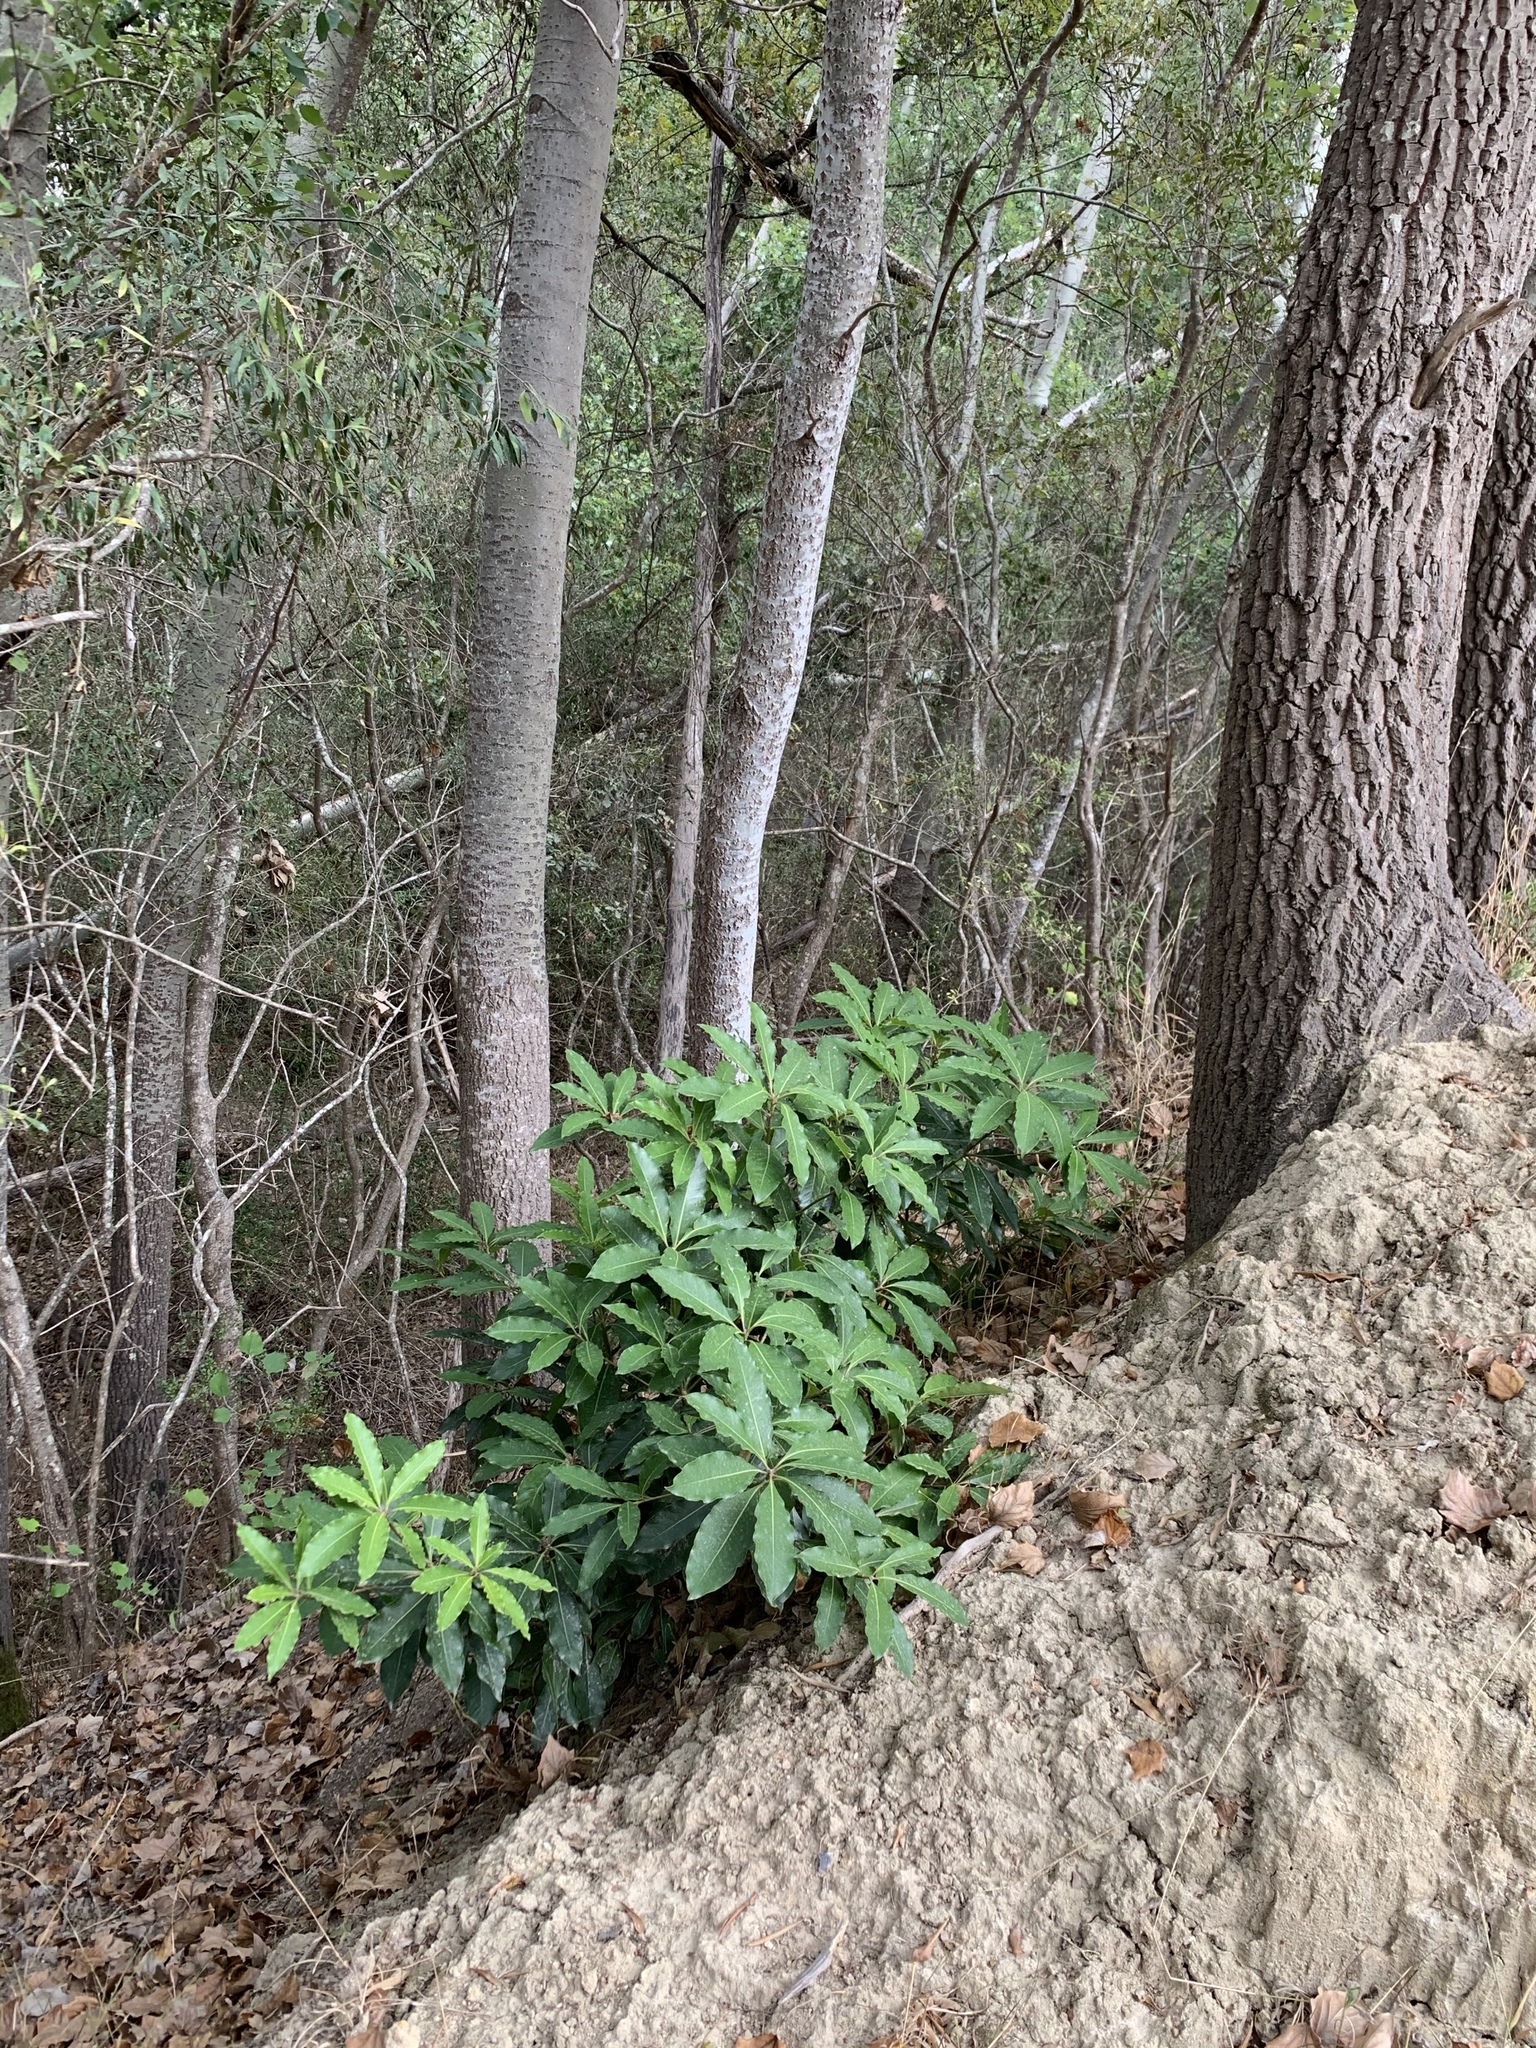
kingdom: Plantae
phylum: Tracheophyta
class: Magnoliopsida
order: Apiales
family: Pittosporaceae
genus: Pittosporum
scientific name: Pittosporum undulatum
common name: Australian cheesewood
